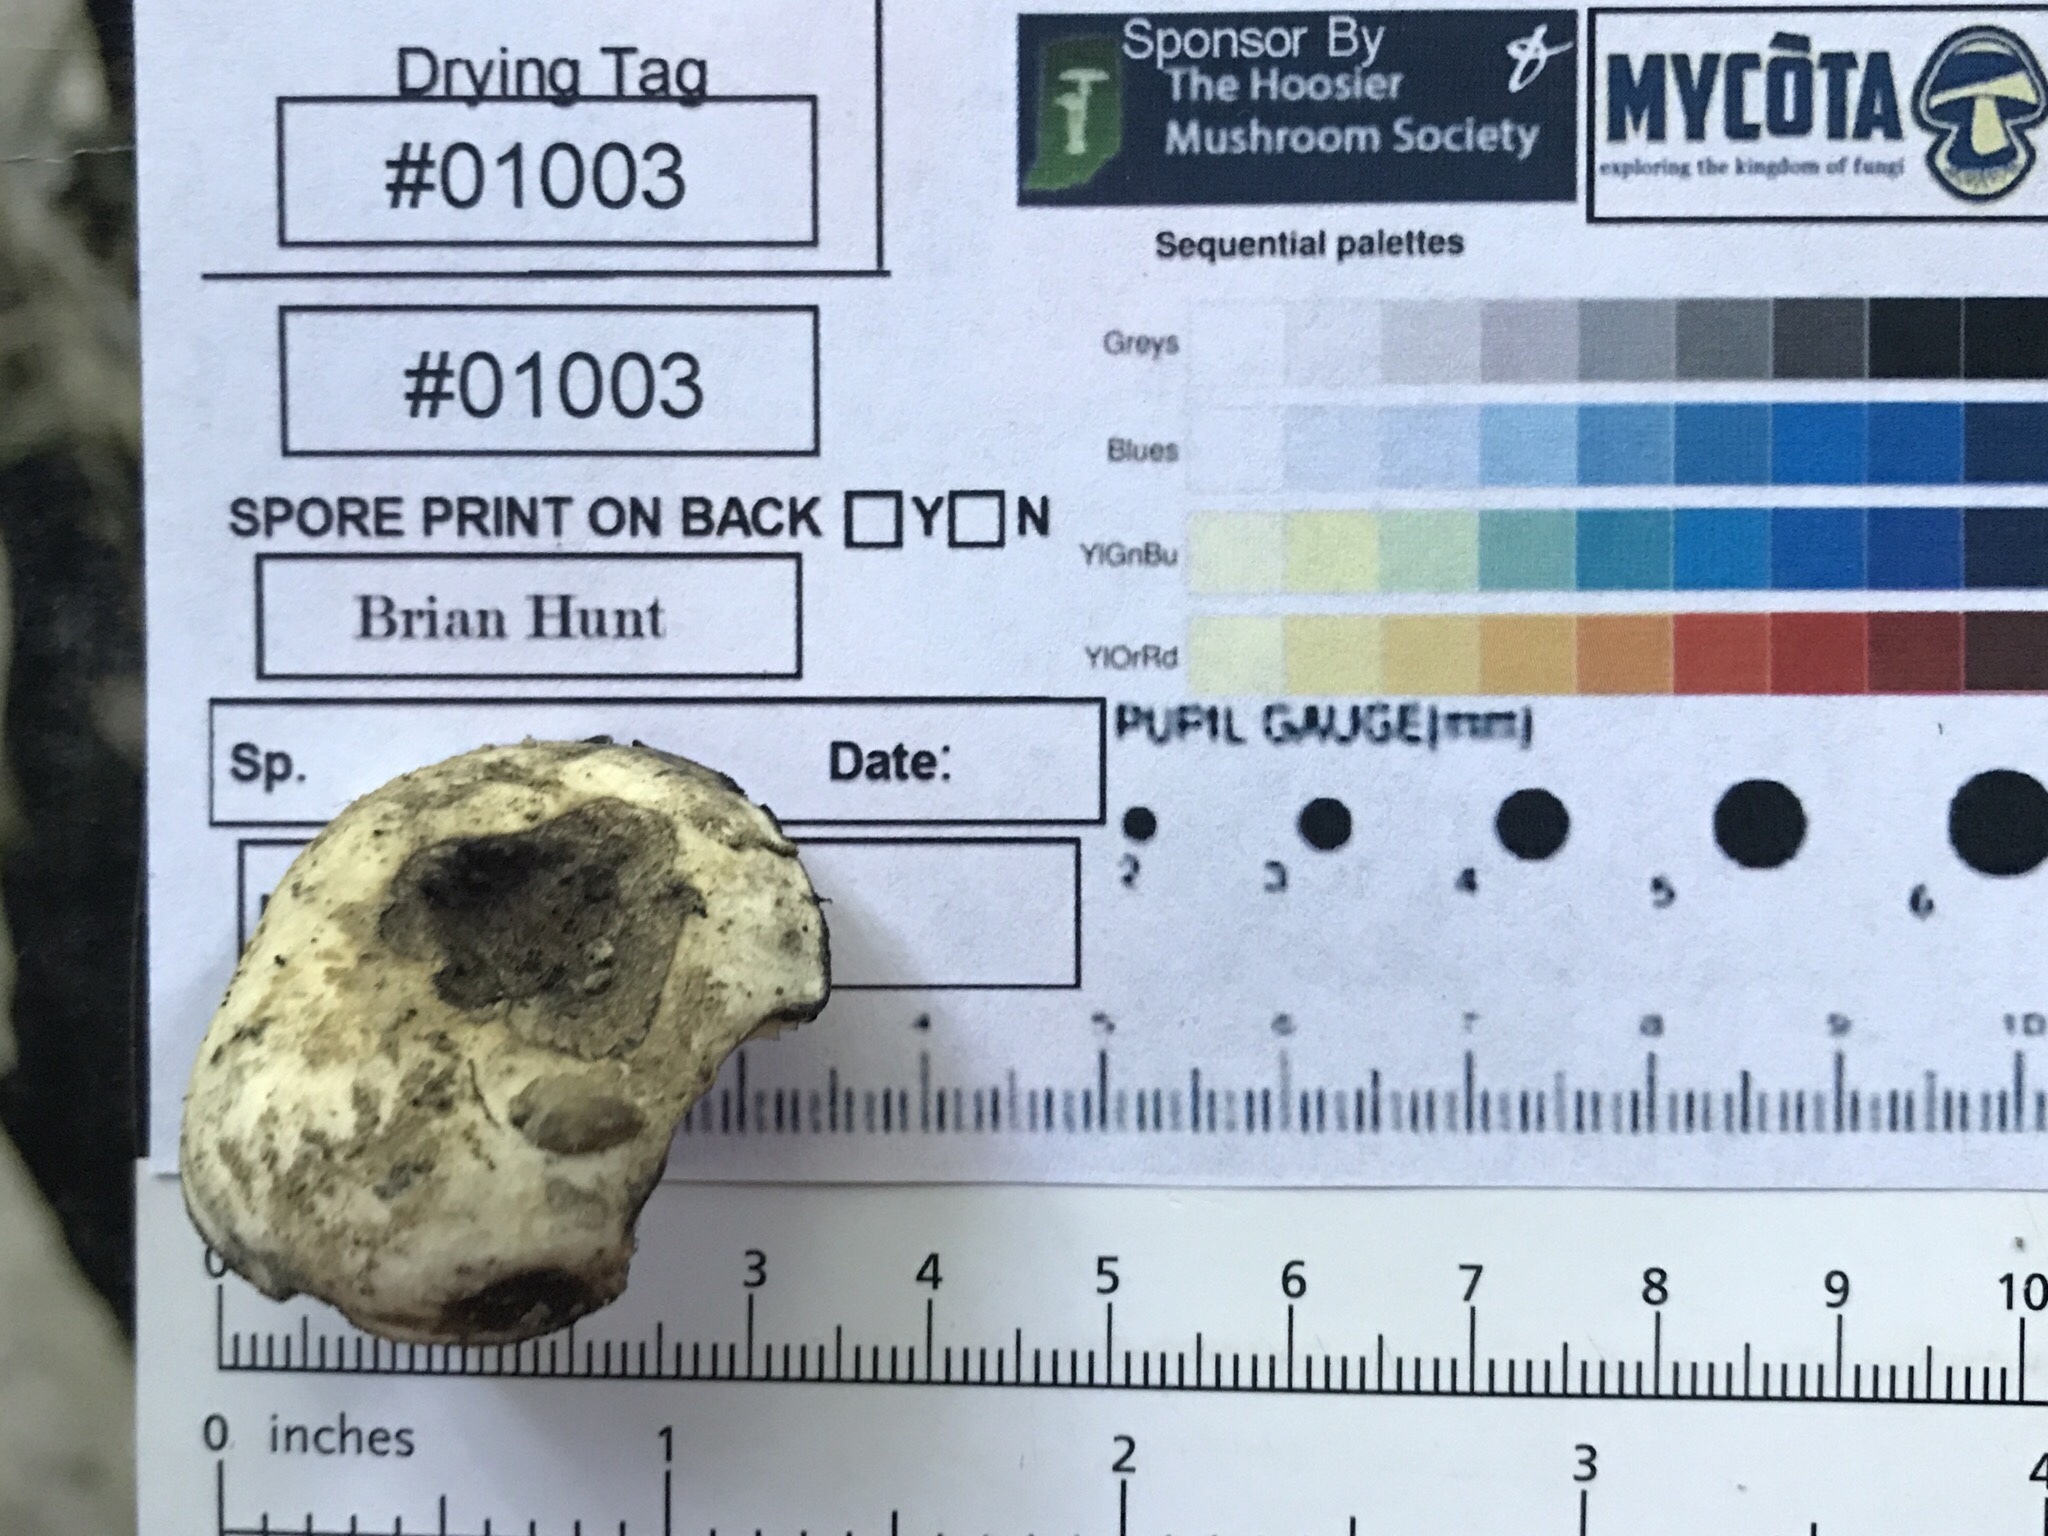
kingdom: Fungi
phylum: Basidiomycota
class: Agaricomycetes
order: Russulales
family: Russulaceae
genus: Russula
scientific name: Russula atramentosa
